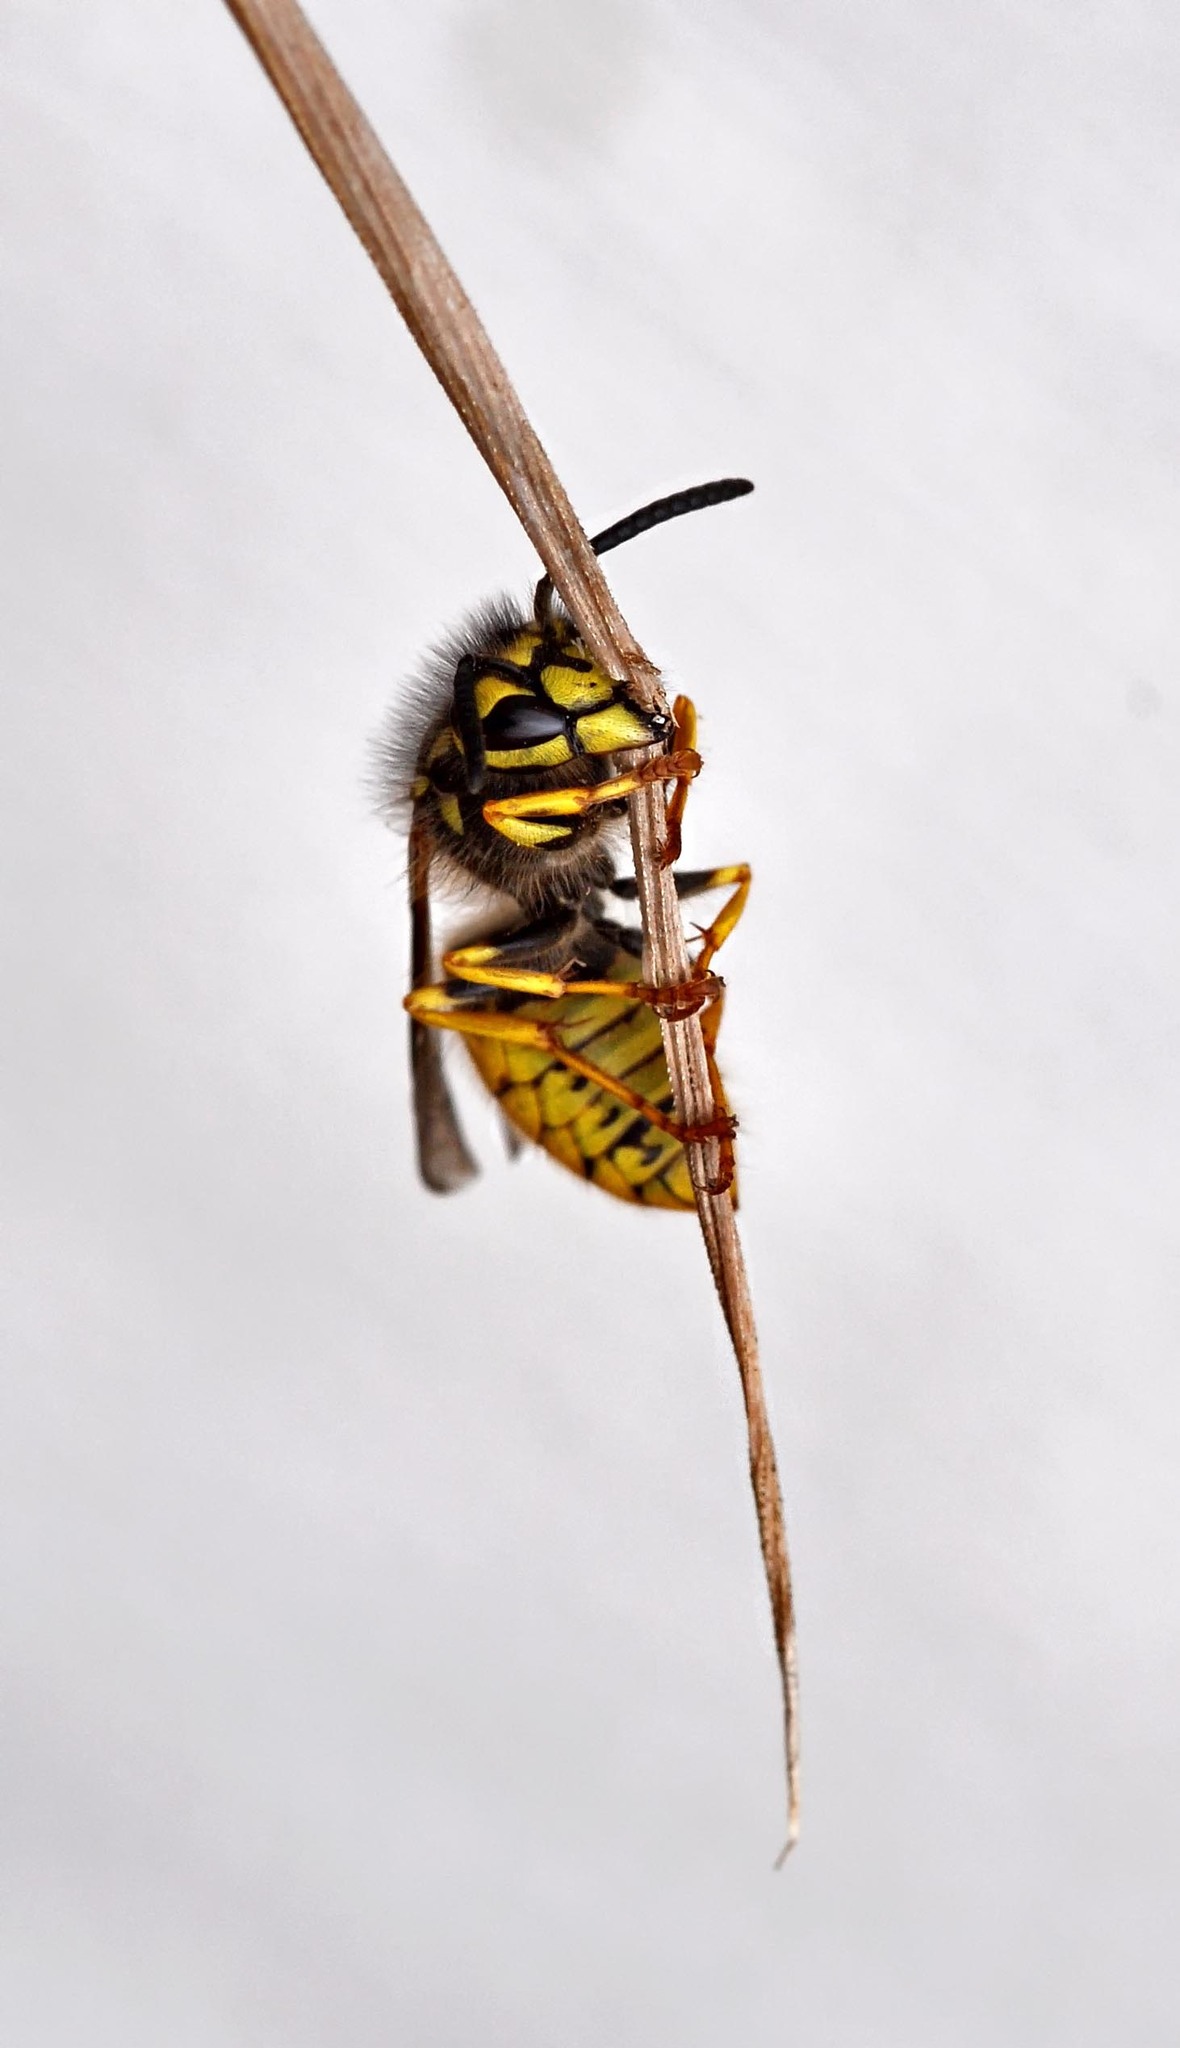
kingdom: Animalia
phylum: Arthropoda
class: Insecta
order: Hymenoptera
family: Vespidae
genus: Vespula
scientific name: Vespula germanica
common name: German wasp
